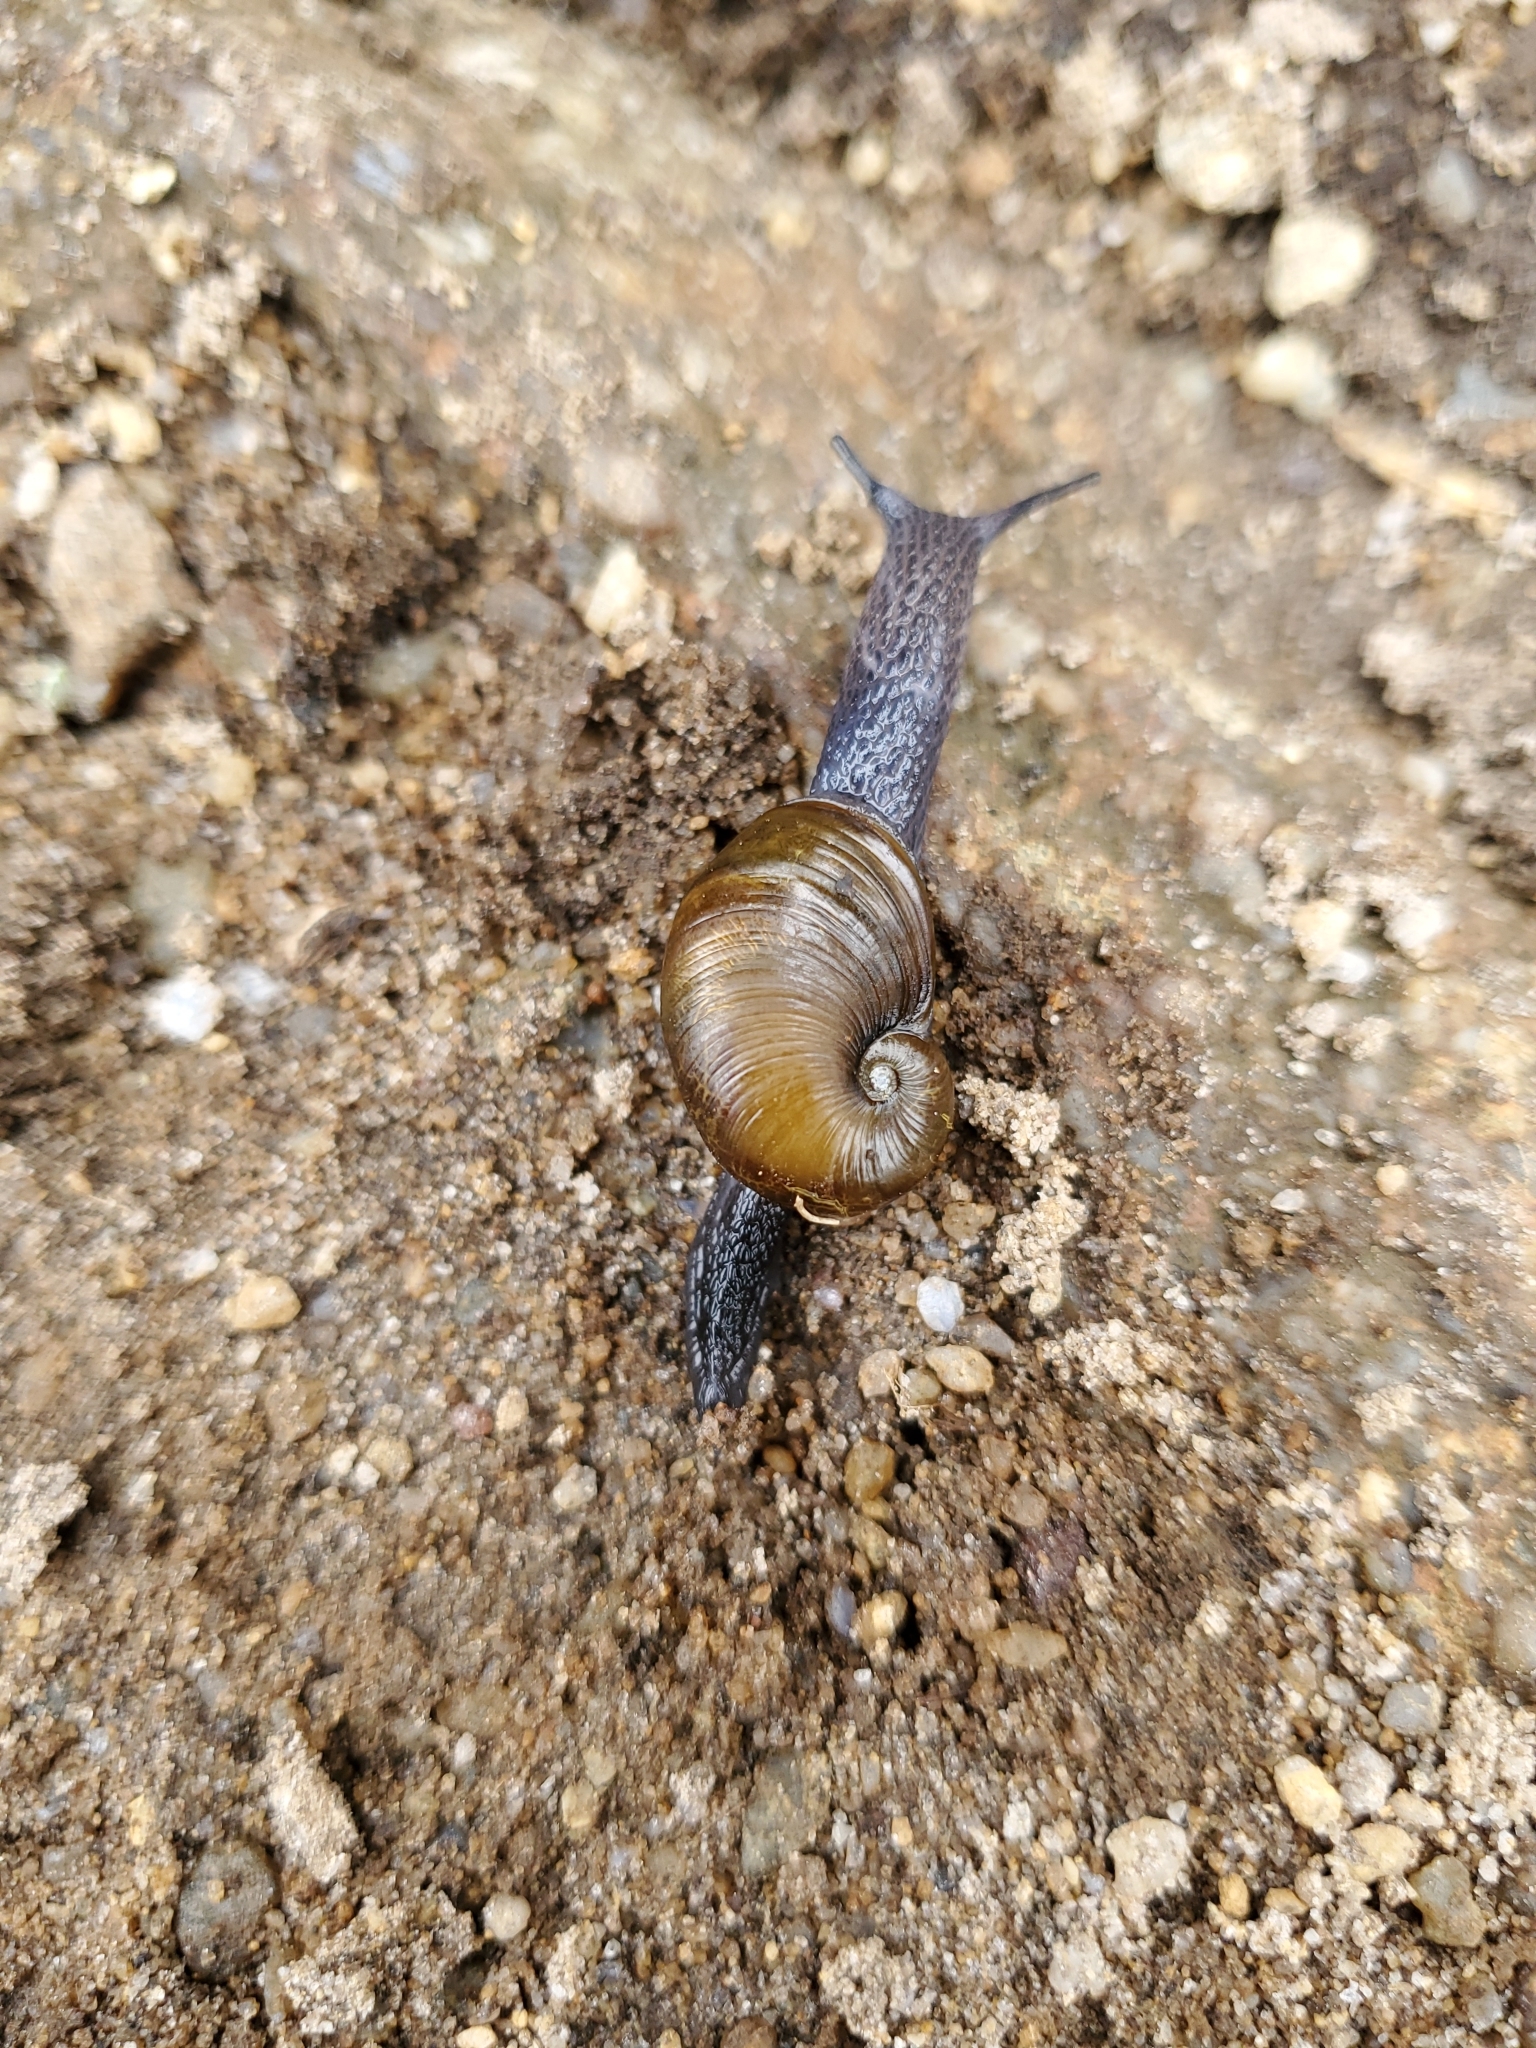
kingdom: Animalia
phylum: Mollusca
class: Gastropoda
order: Stylommatophora
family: Gastrodontidae
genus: Vitrinizonites
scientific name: Vitrinizonites latissimus
